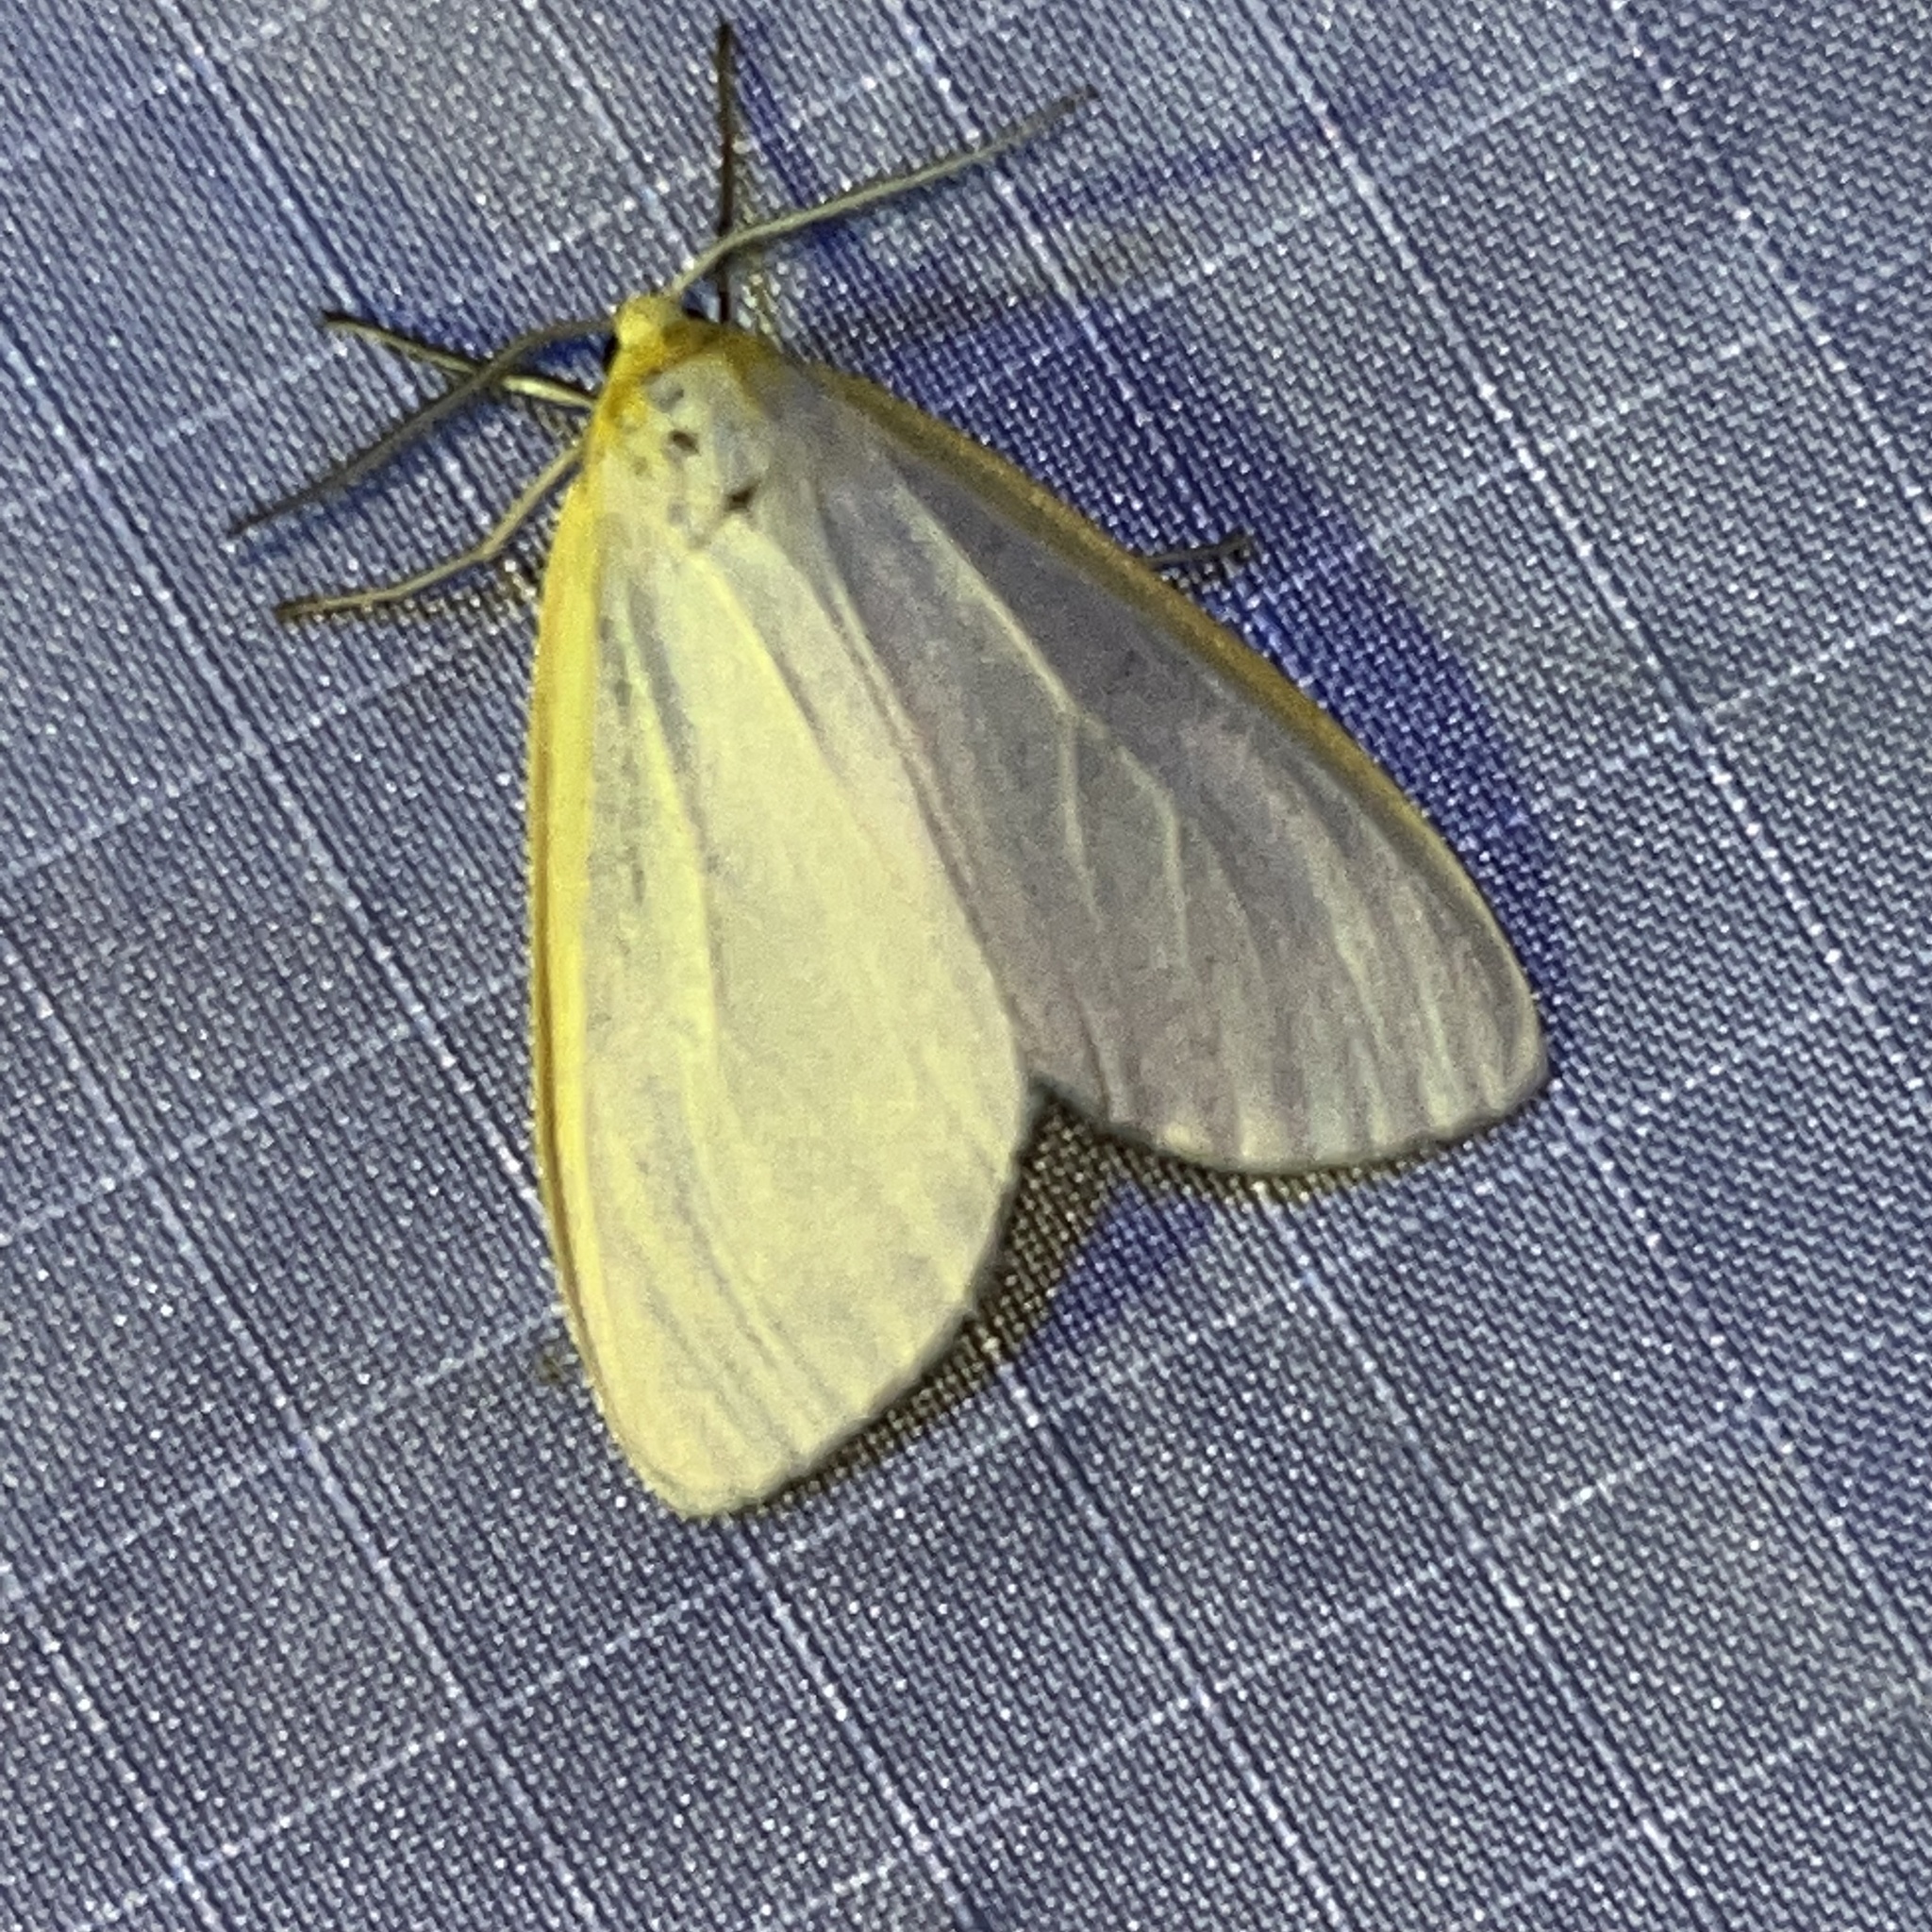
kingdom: Animalia
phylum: Arthropoda
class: Insecta
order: Lepidoptera
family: Erebidae
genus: Cycnia
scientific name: Cycnia tenera
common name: Delicate cycnia moth
